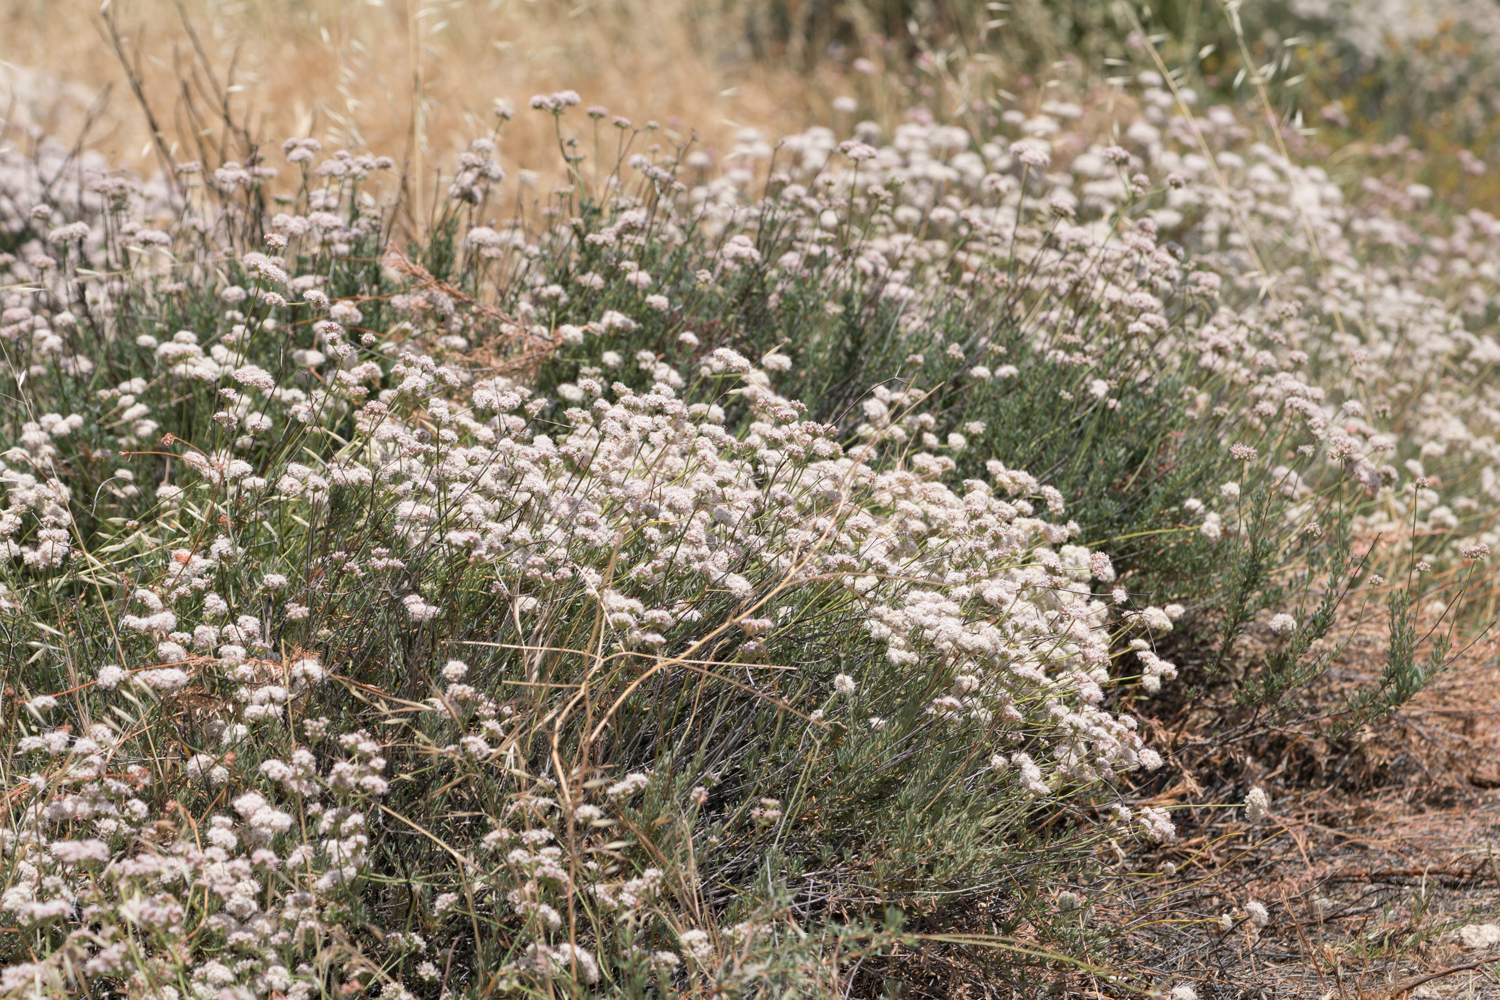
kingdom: Plantae
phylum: Tracheophyta
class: Magnoliopsida
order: Caryophyllales
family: Polygonaceae
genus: Eriogonum
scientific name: Eriogonum fasciculatum
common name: California wild buckwheat
